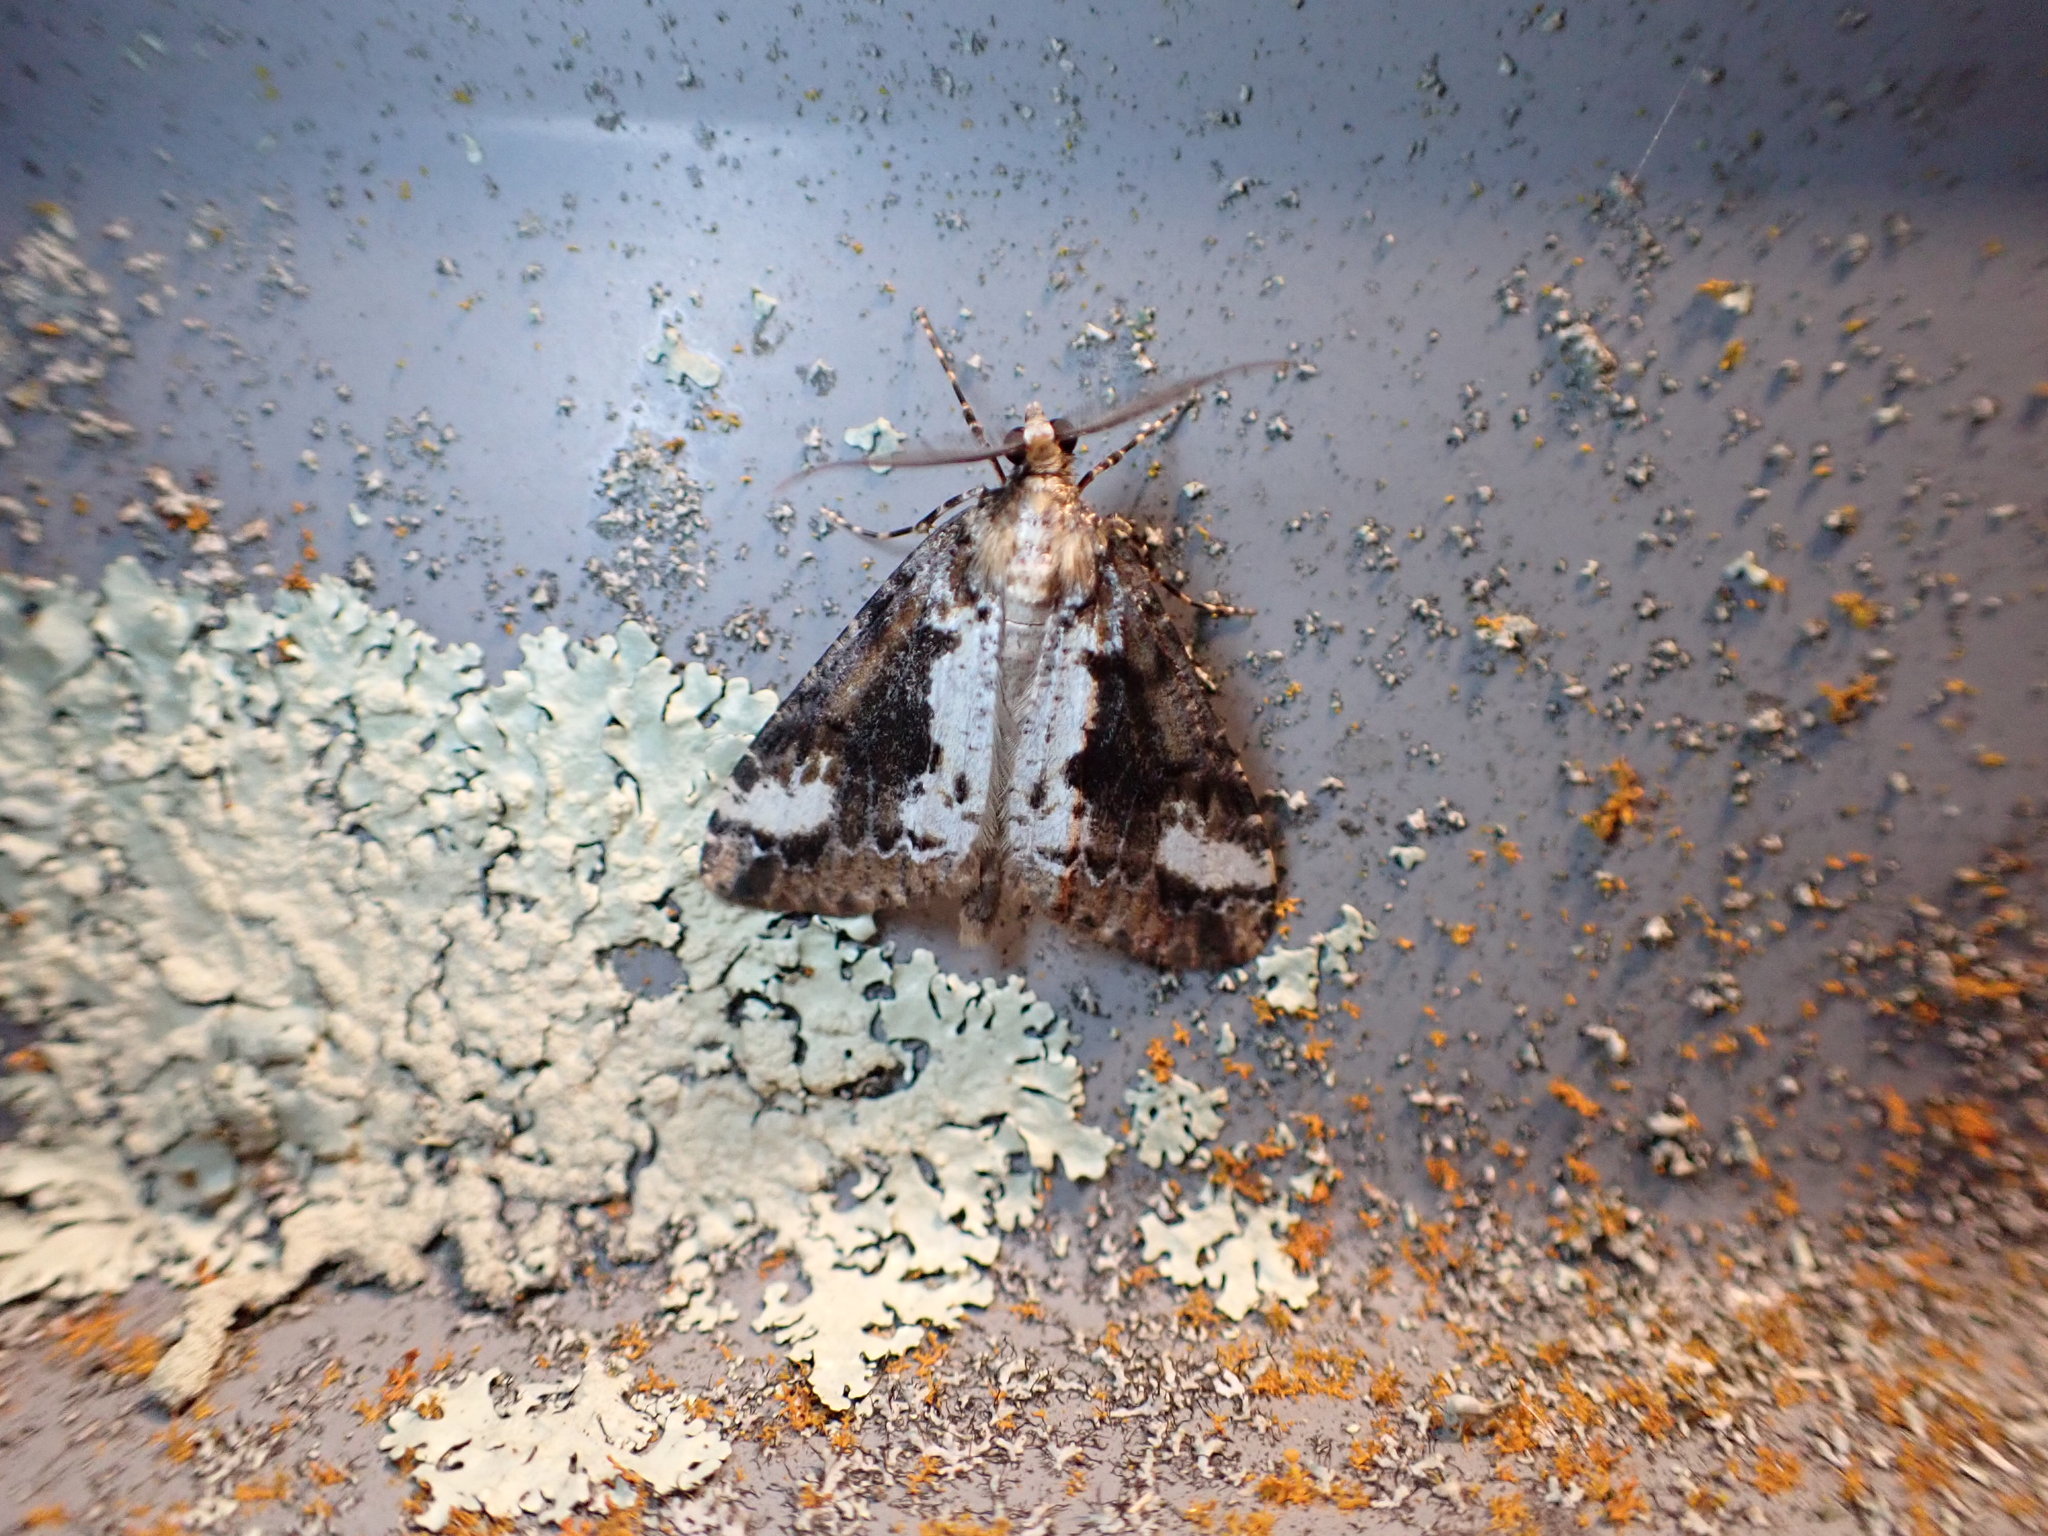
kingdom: Animalia
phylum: Arthropoda
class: Insecta
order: Lepidoptera
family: Geometridae
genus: Pseudocoremia
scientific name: Pseudocoremia leucelaea
